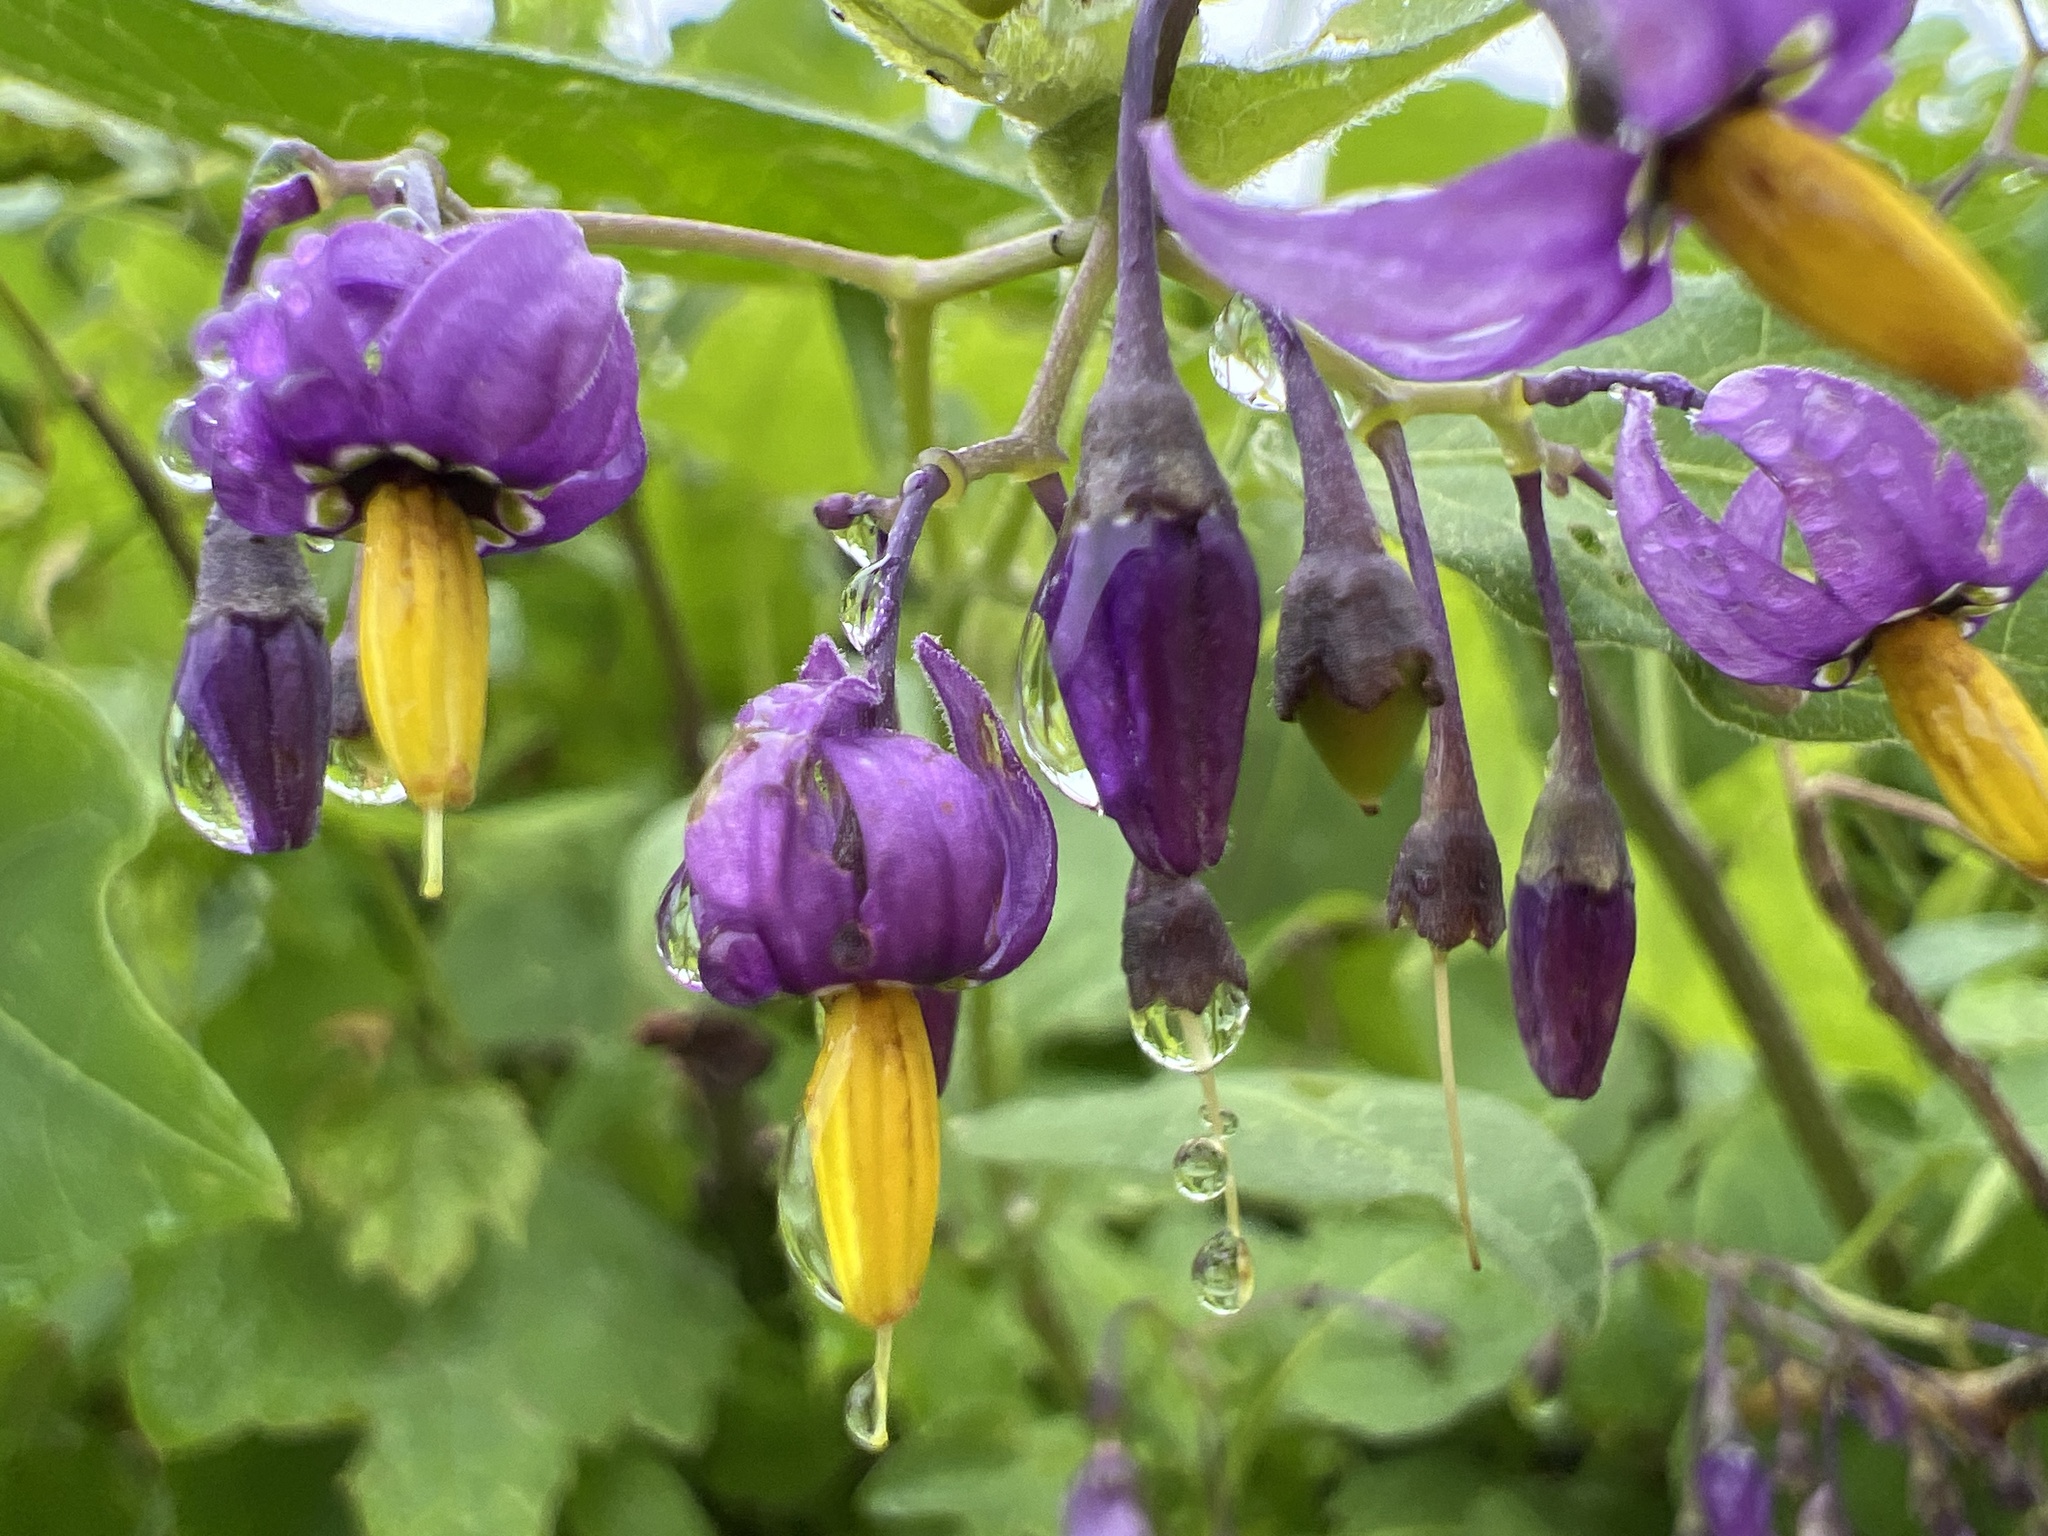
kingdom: Plantae
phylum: Tracheophyta
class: Magnoliopsida
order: Solanales
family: Solanaceae
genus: Solanum
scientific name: Solanum dulcamara
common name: Climbing nightshade
